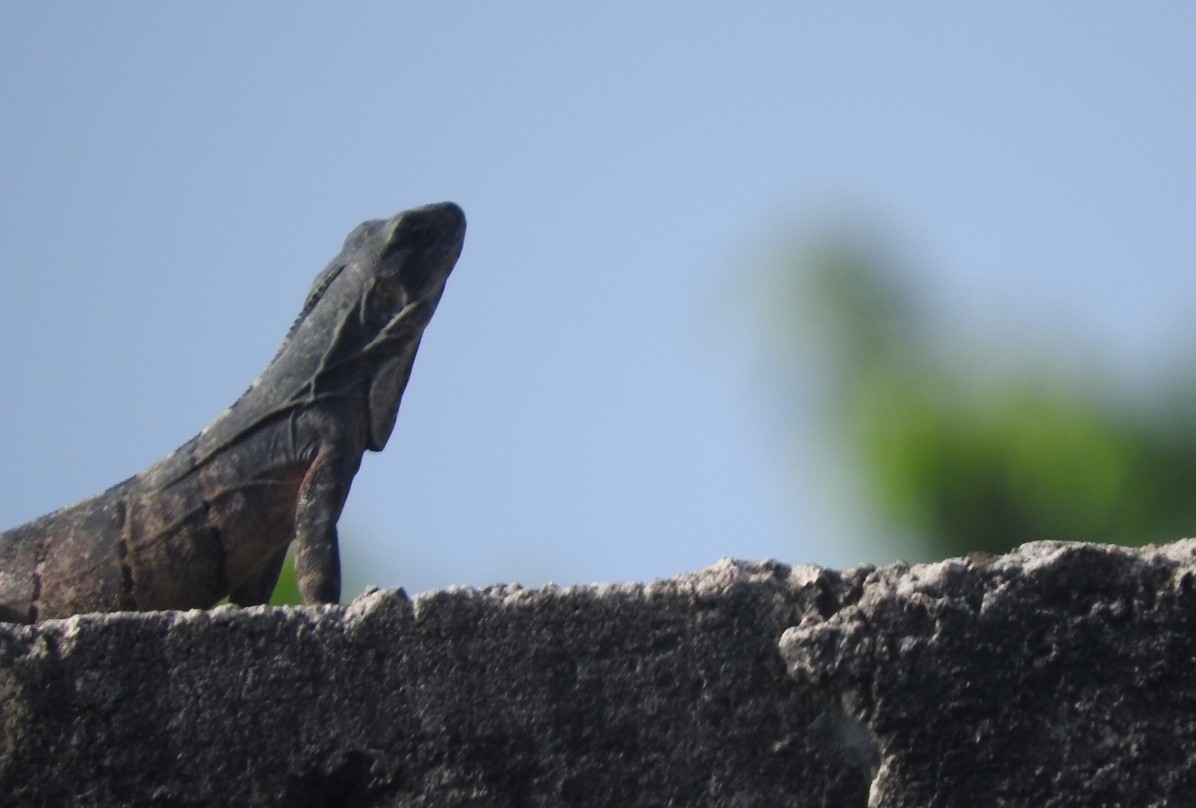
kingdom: Animalia
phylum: Chordata
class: Squamata
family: Iguanidae
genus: Ctenosaura
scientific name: Ctenosaura similis
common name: Black spiny-tailed iguana
